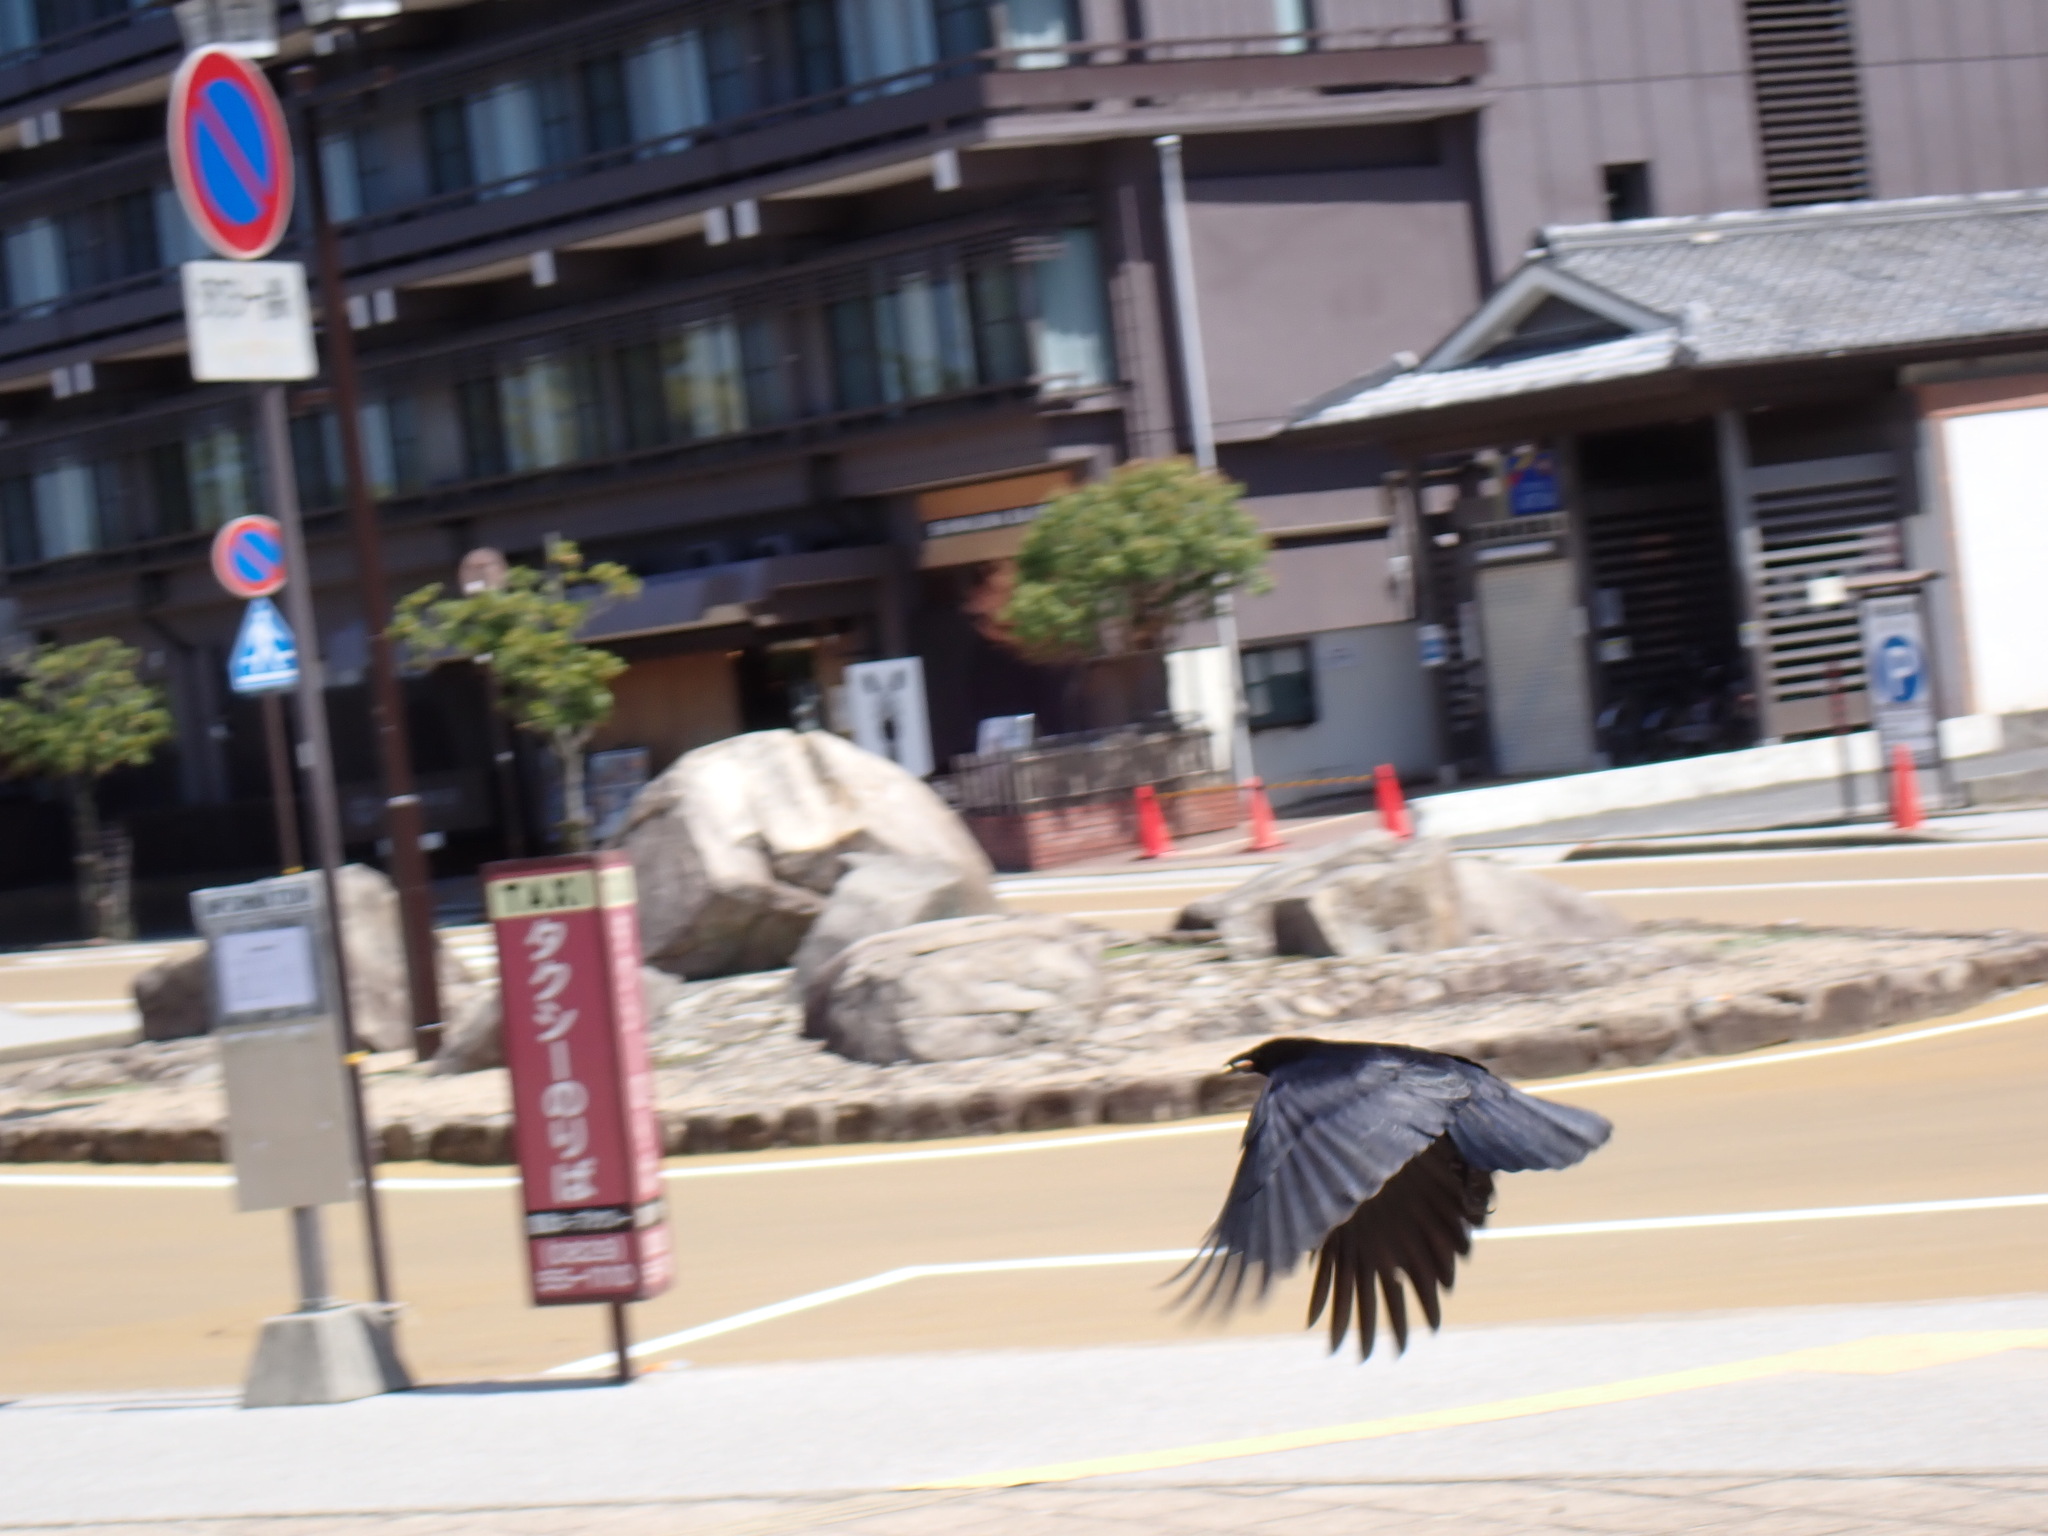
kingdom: Animalia
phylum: Chordata
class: Aves
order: Passeriformes
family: Corvidae
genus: Corvus
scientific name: Corvus corone
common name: Carrion crow
